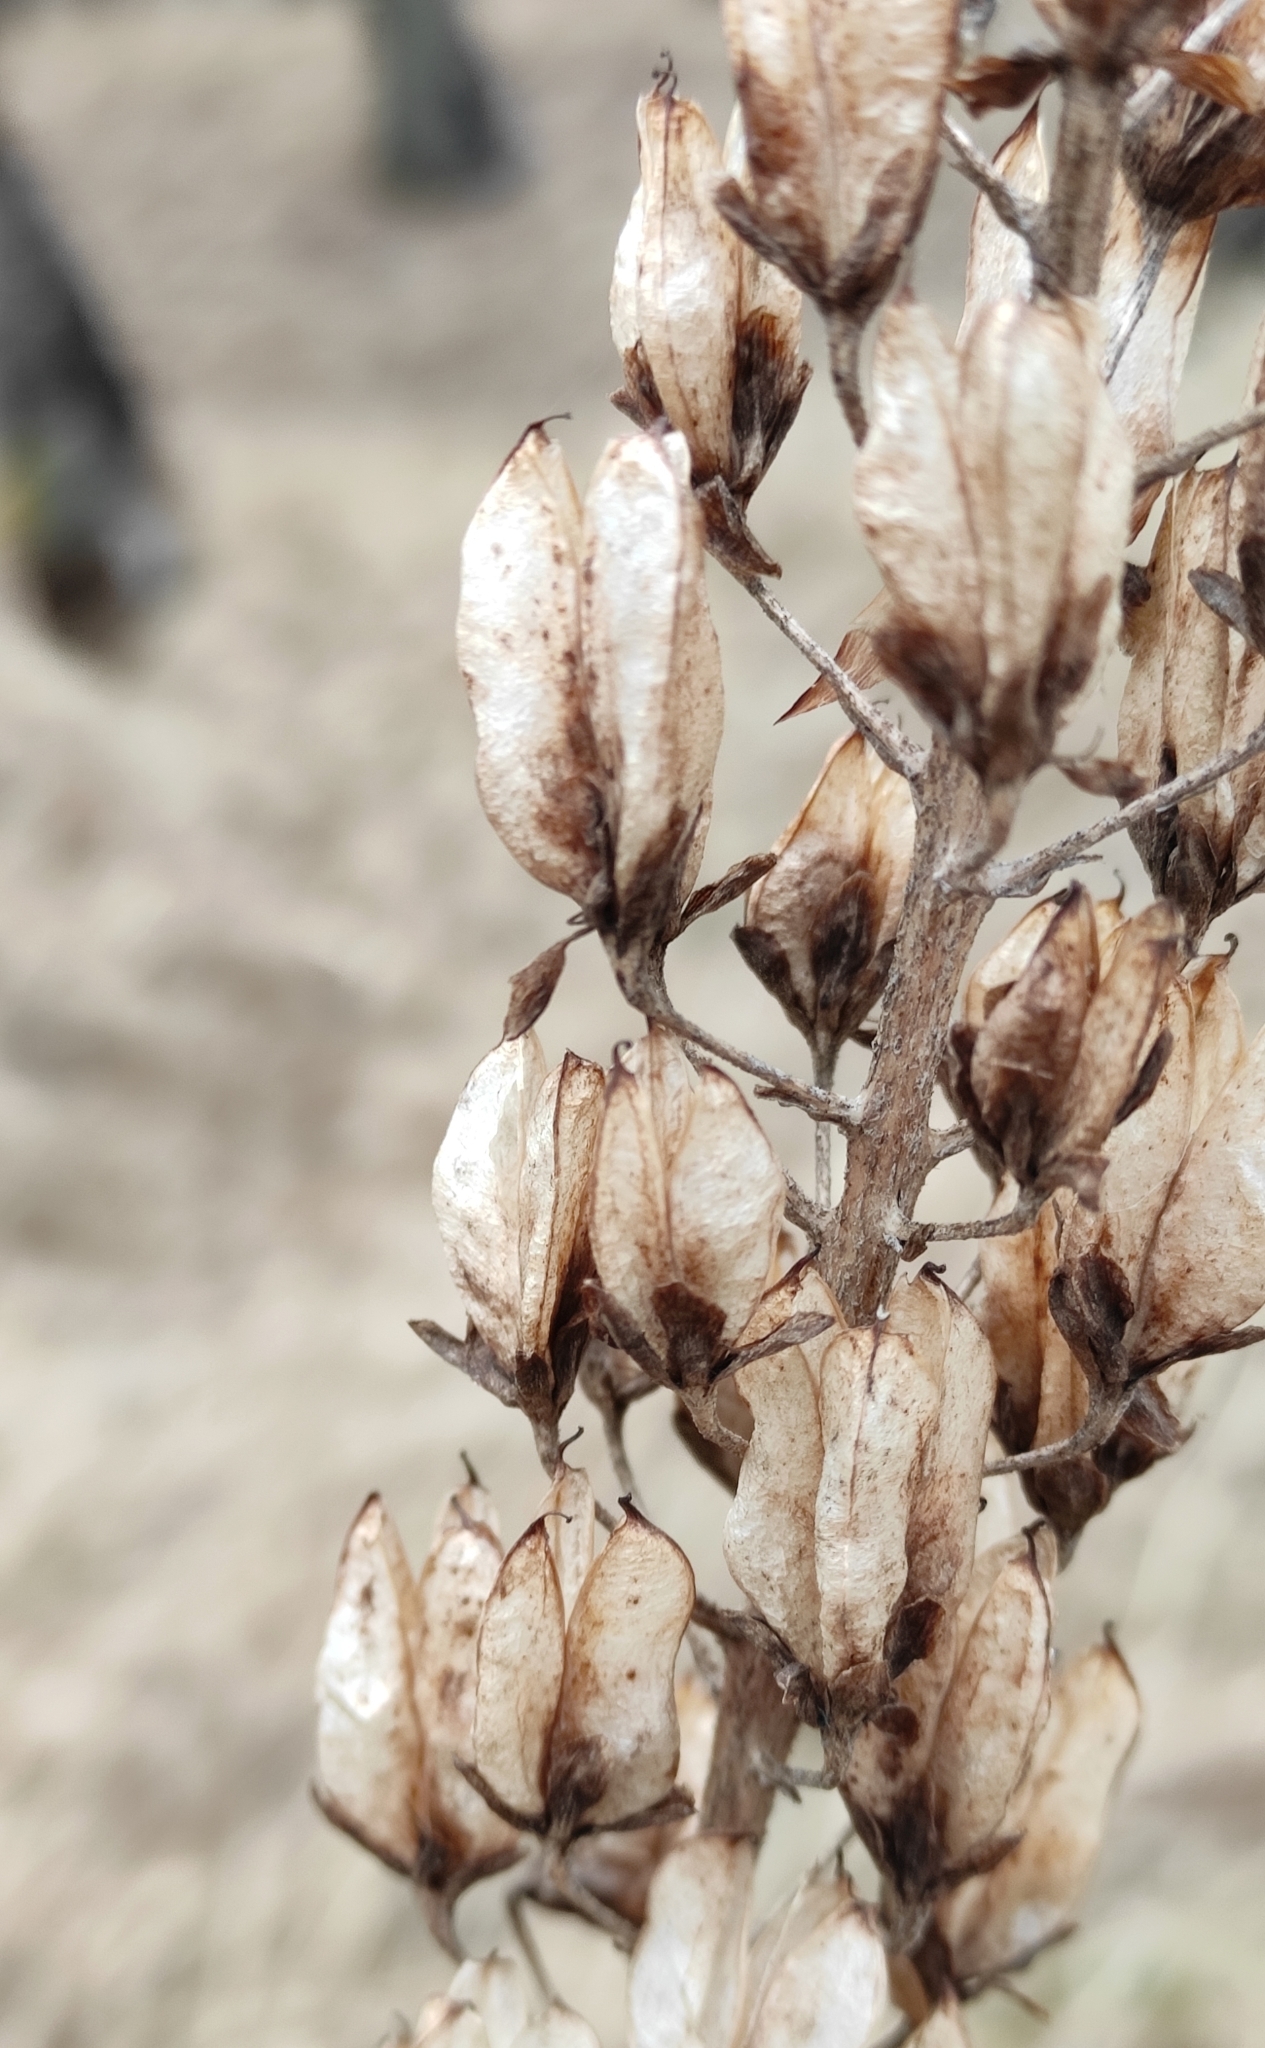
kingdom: Plantae
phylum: Tracheophyta
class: Liliopsida
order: Liliales
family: Melanthiaceae
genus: Veratrum
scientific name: Veratrum nigrum
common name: Black veratrum
